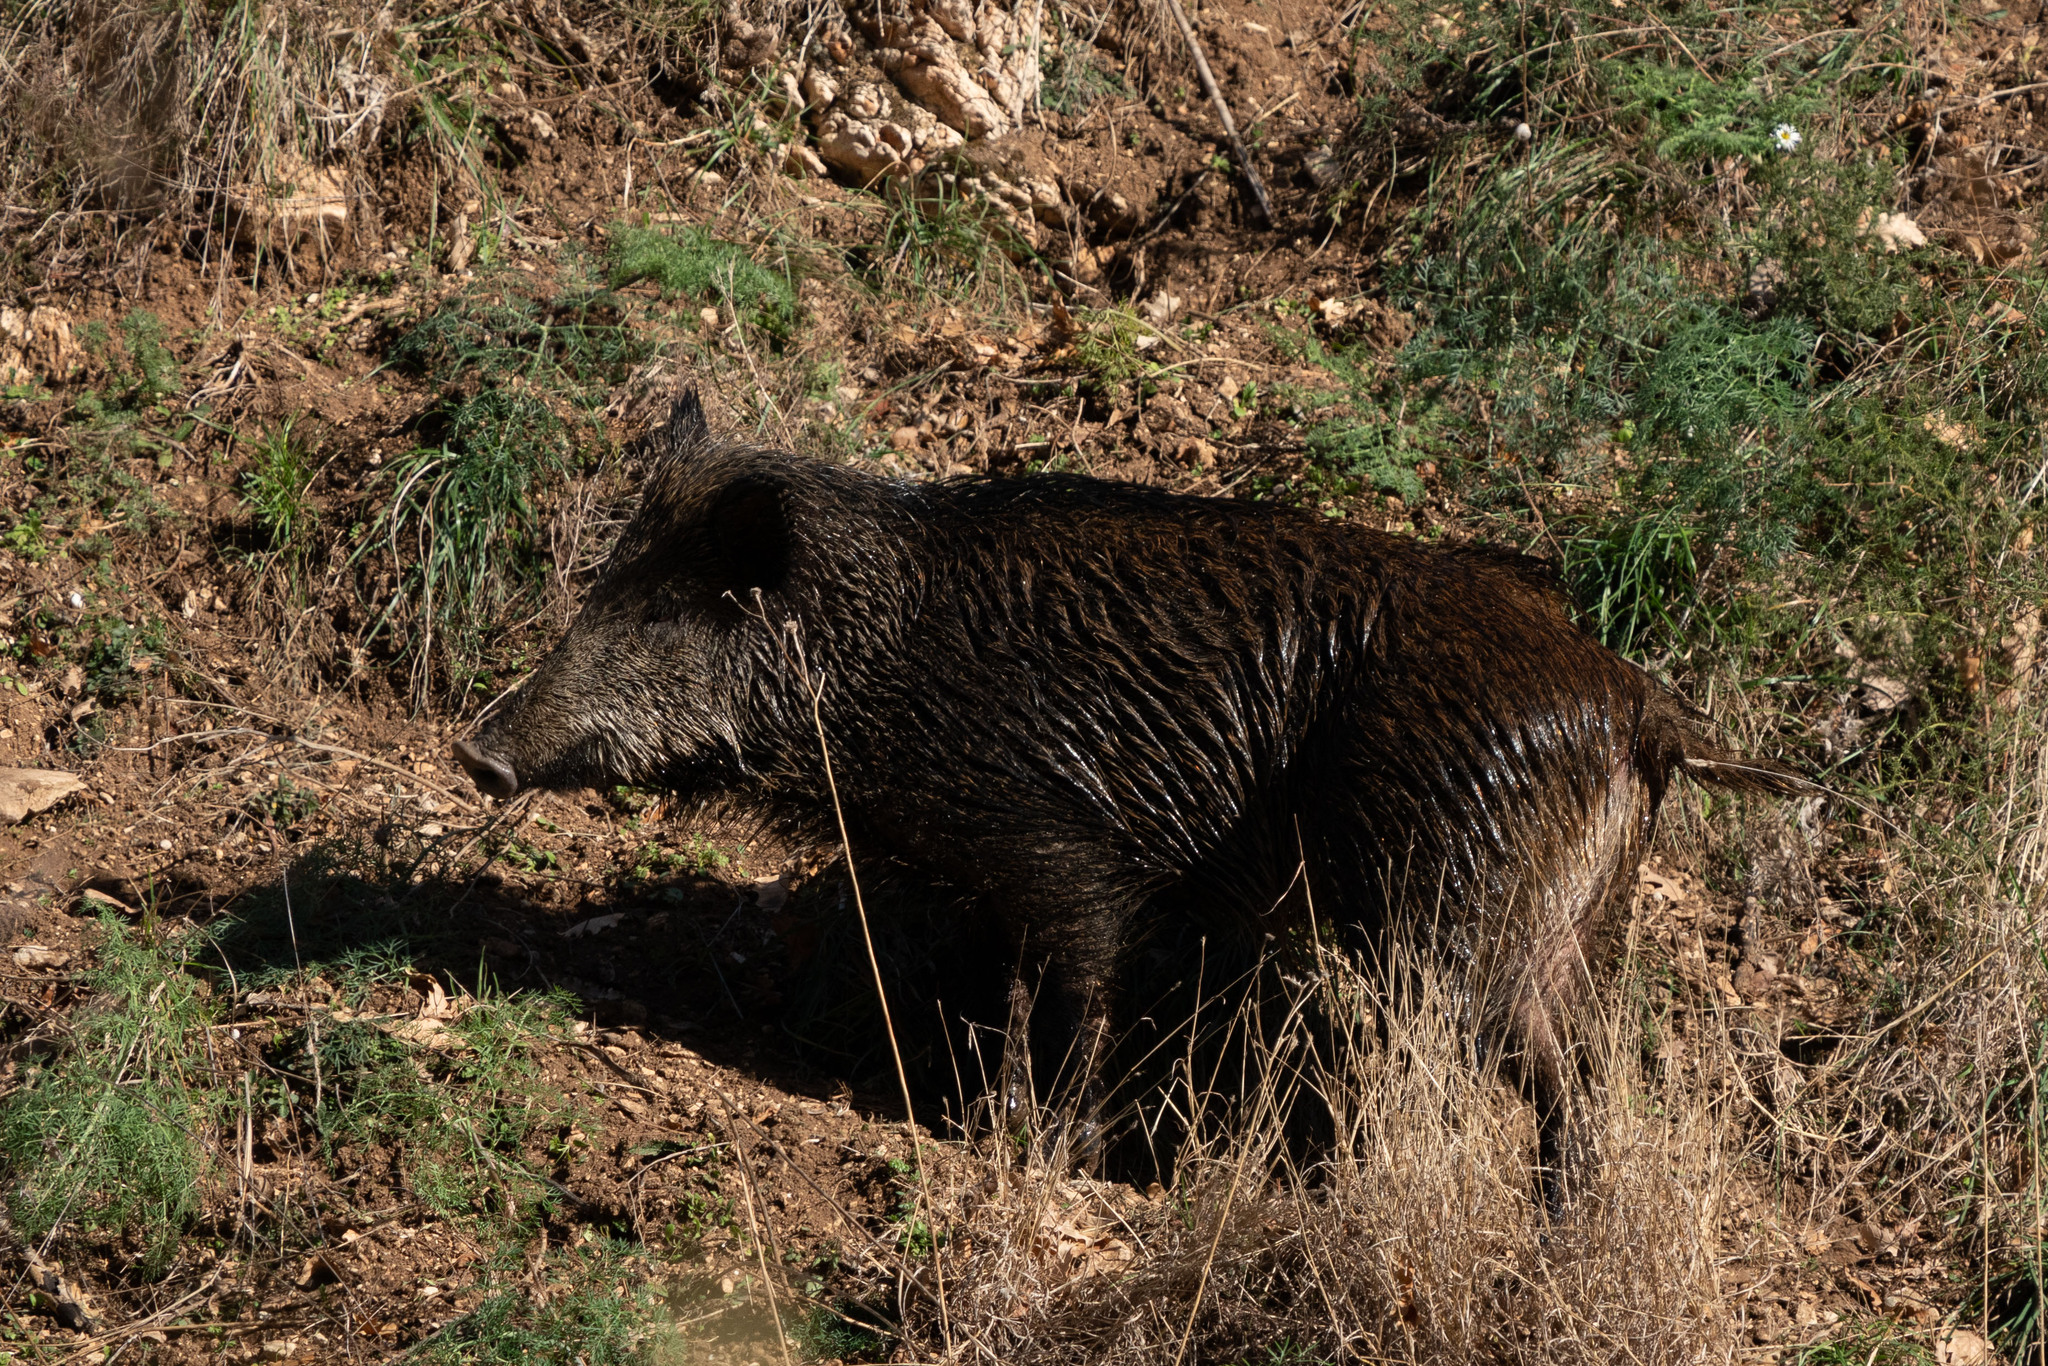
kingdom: Animalia
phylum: Chordata
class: Mammalia
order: Artiodactyla
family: Suidae
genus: Sus
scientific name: Sus scrofa
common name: Wild boar
